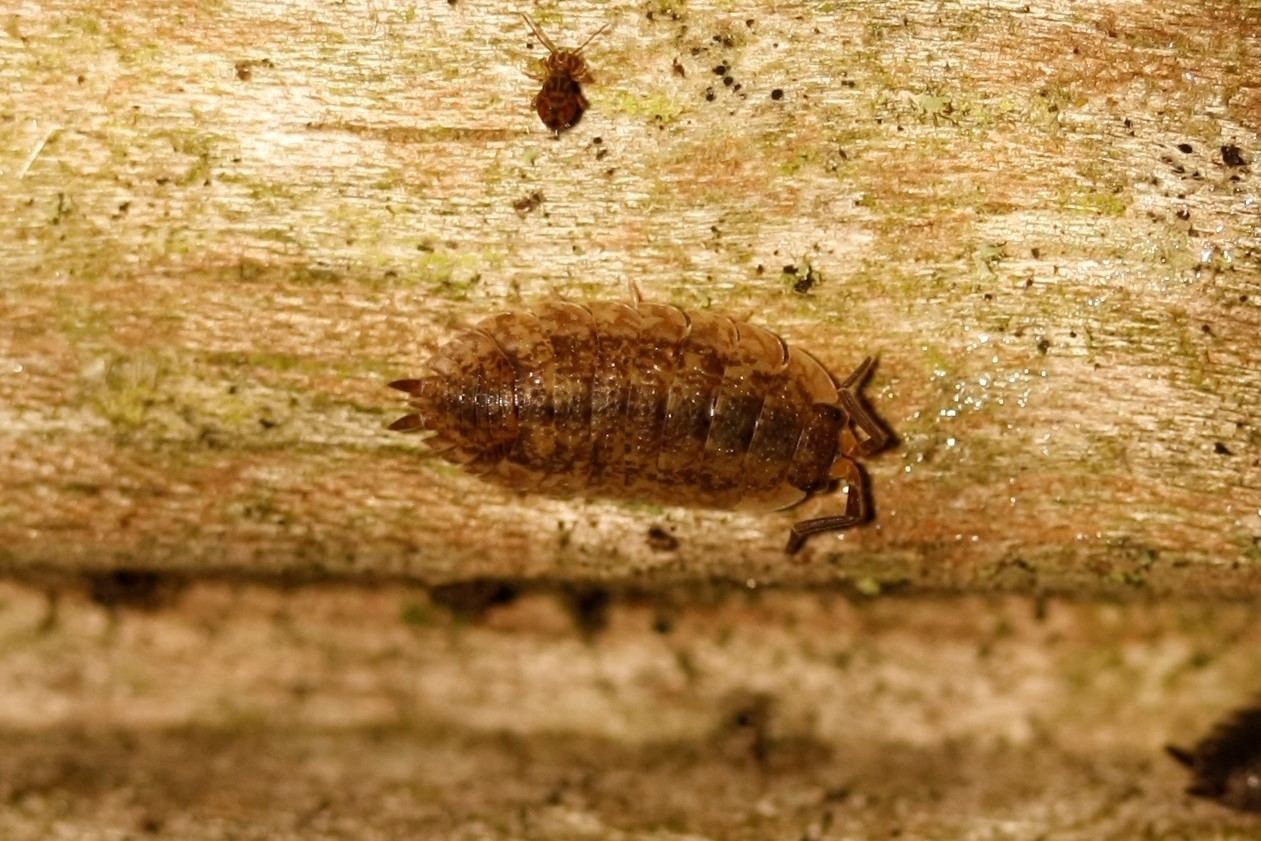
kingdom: Animalia
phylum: Arthropoda
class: Malacostraca
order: Isopoda
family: Porcellionidae
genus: Porcellio
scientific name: Porcellio scaber
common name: Common rough woodlouse
